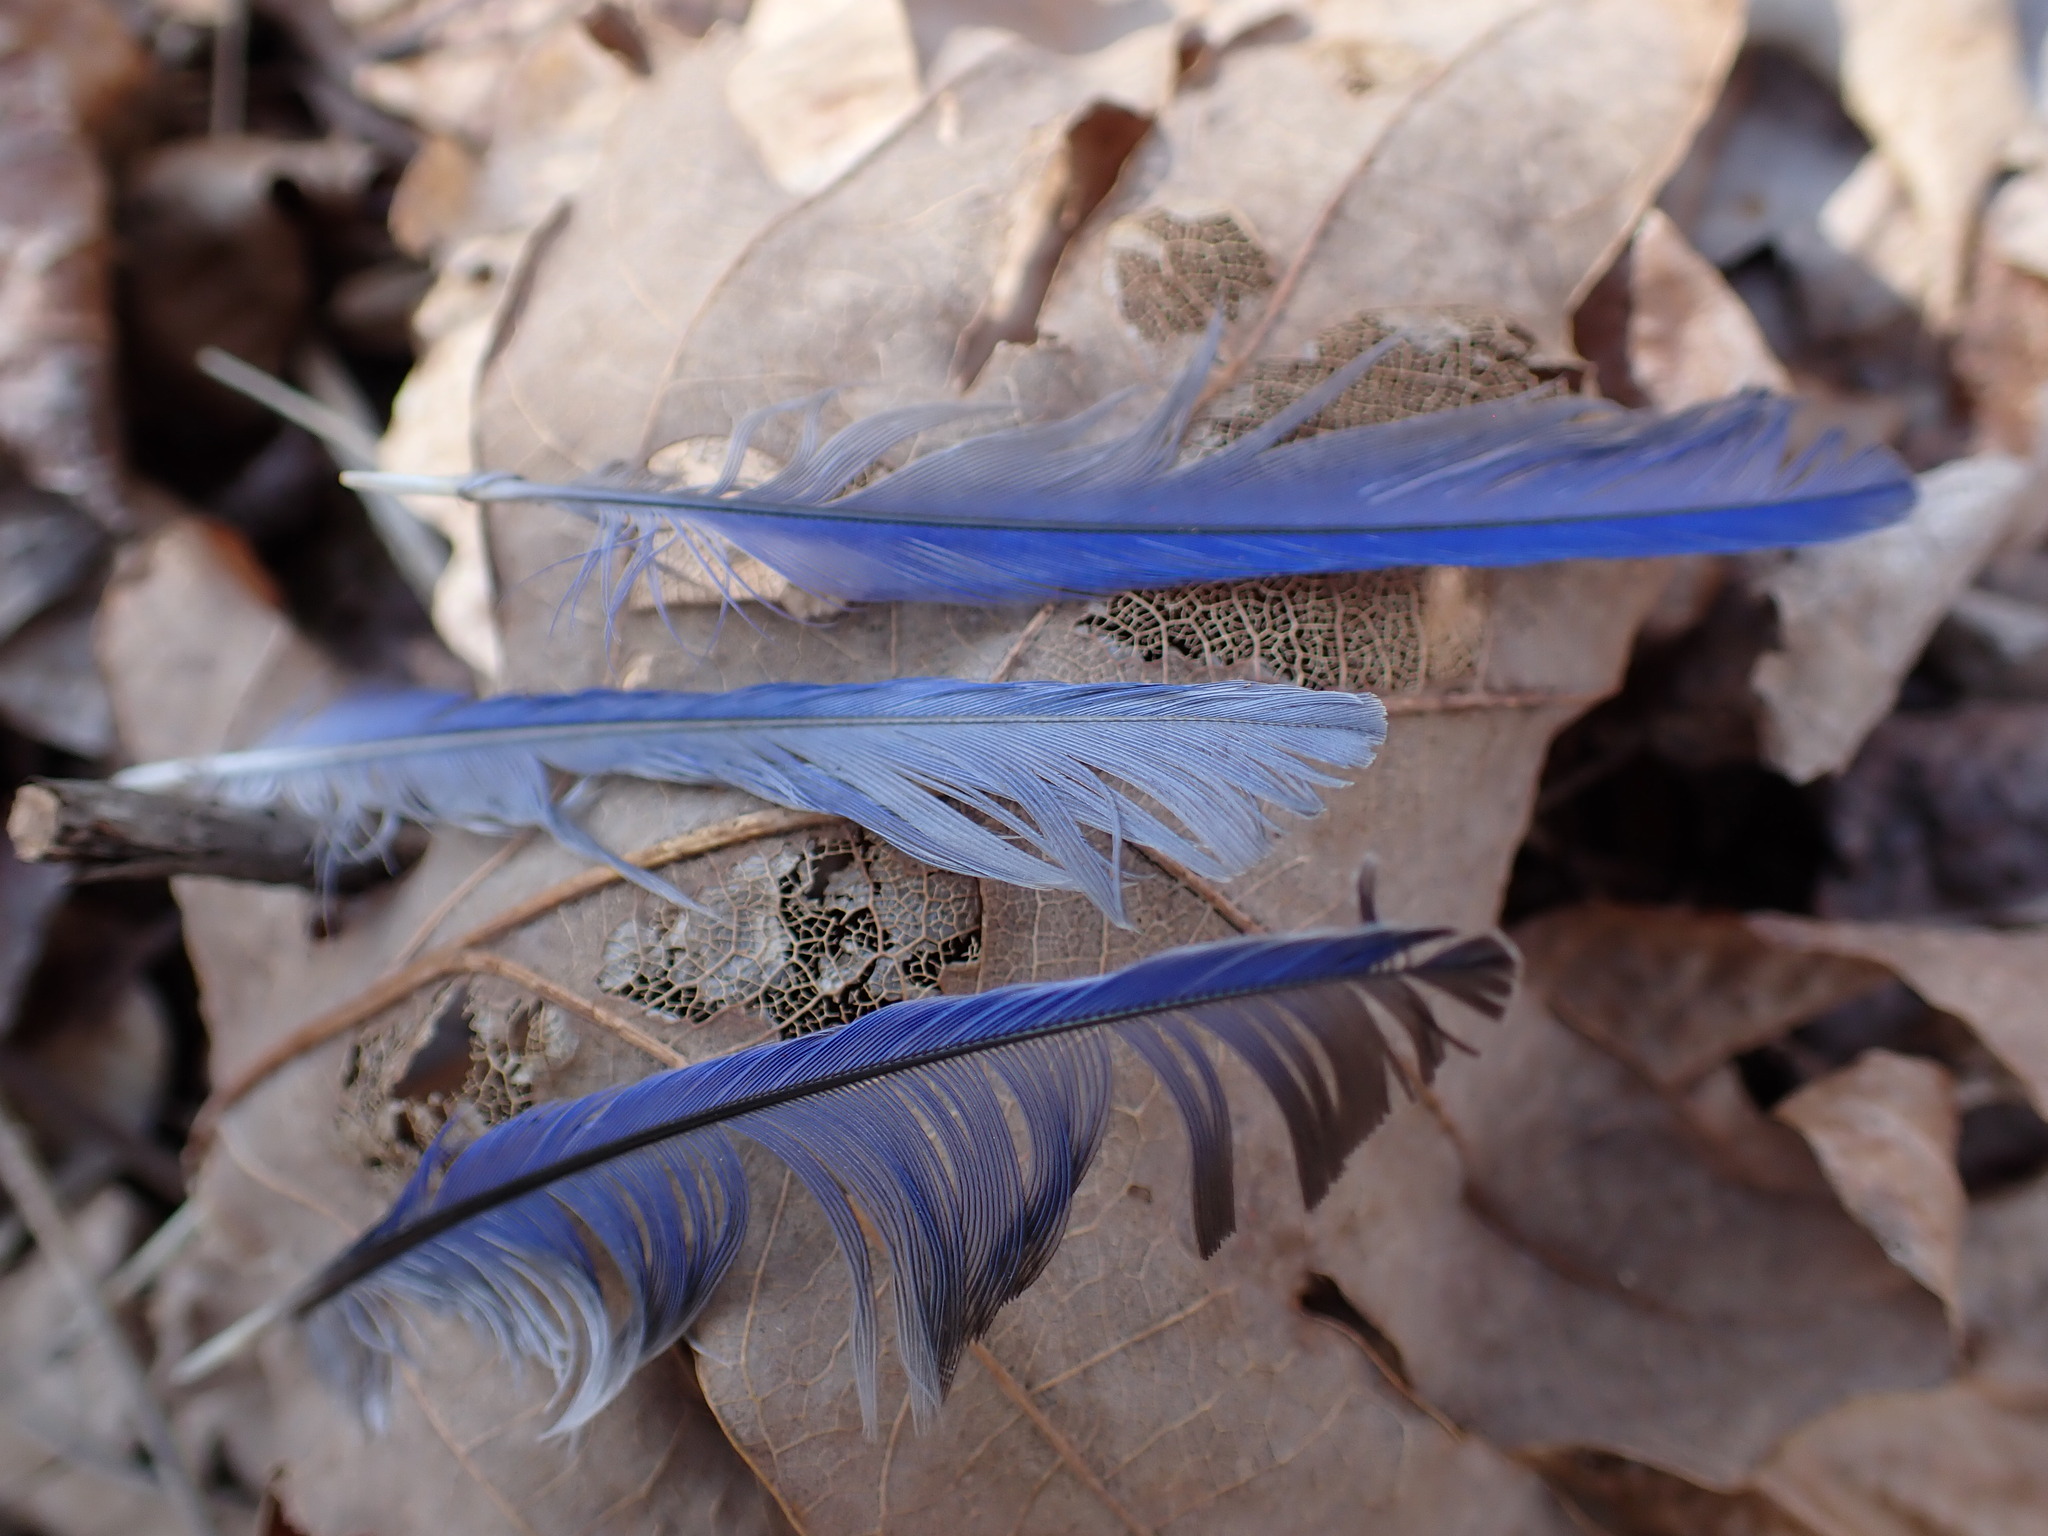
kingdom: Animalia
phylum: Chordata
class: Aves
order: Passeriformes
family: Turdidae
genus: Sialia
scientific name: Sialia sialis
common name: Eastern bluebird
